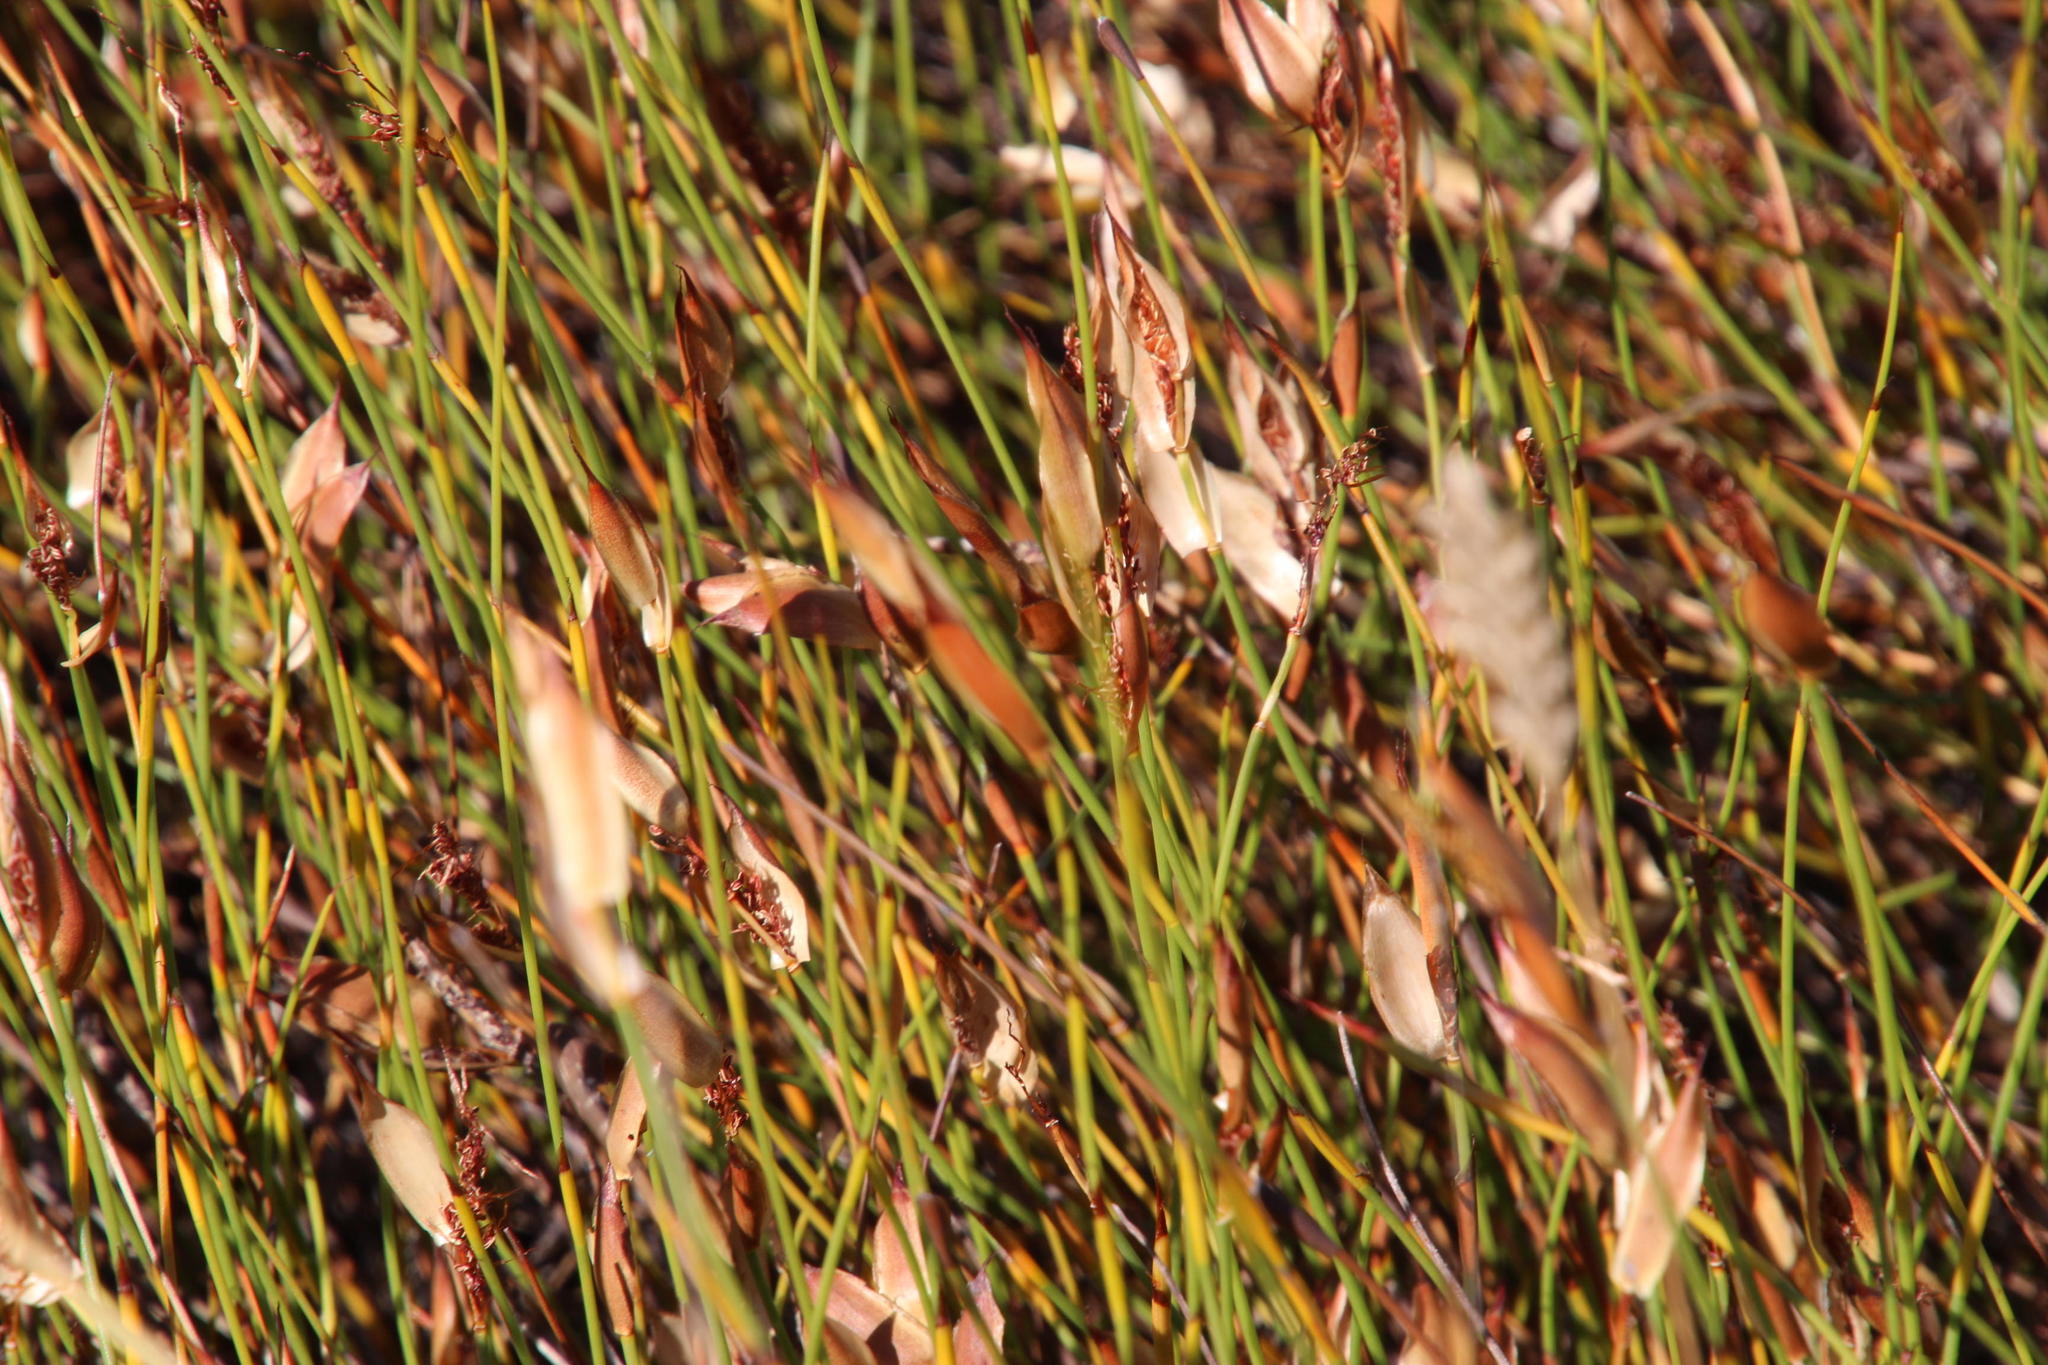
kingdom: Plantae
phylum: Tracheophyta
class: Liliopsida
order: Poales
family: Restionaceae
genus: Willdenowia
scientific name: Willdenowia sulcata
